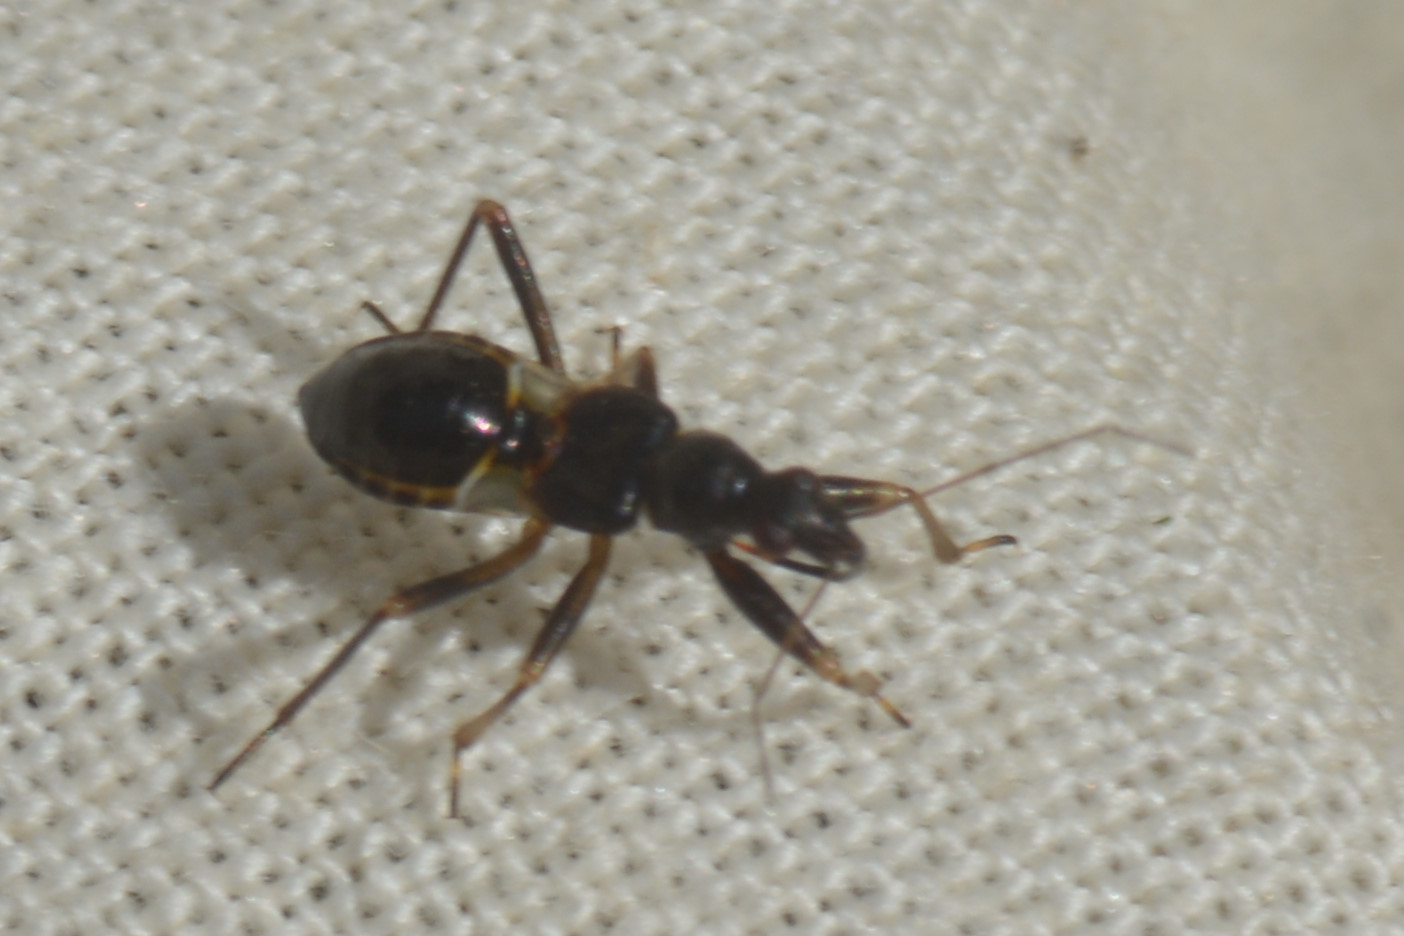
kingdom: Animalia
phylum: Arthropoda
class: Insecta
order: Hemiptera
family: Nabidae
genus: Himacerus
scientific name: Himacerus mirmicoides
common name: Ant damsel bug
